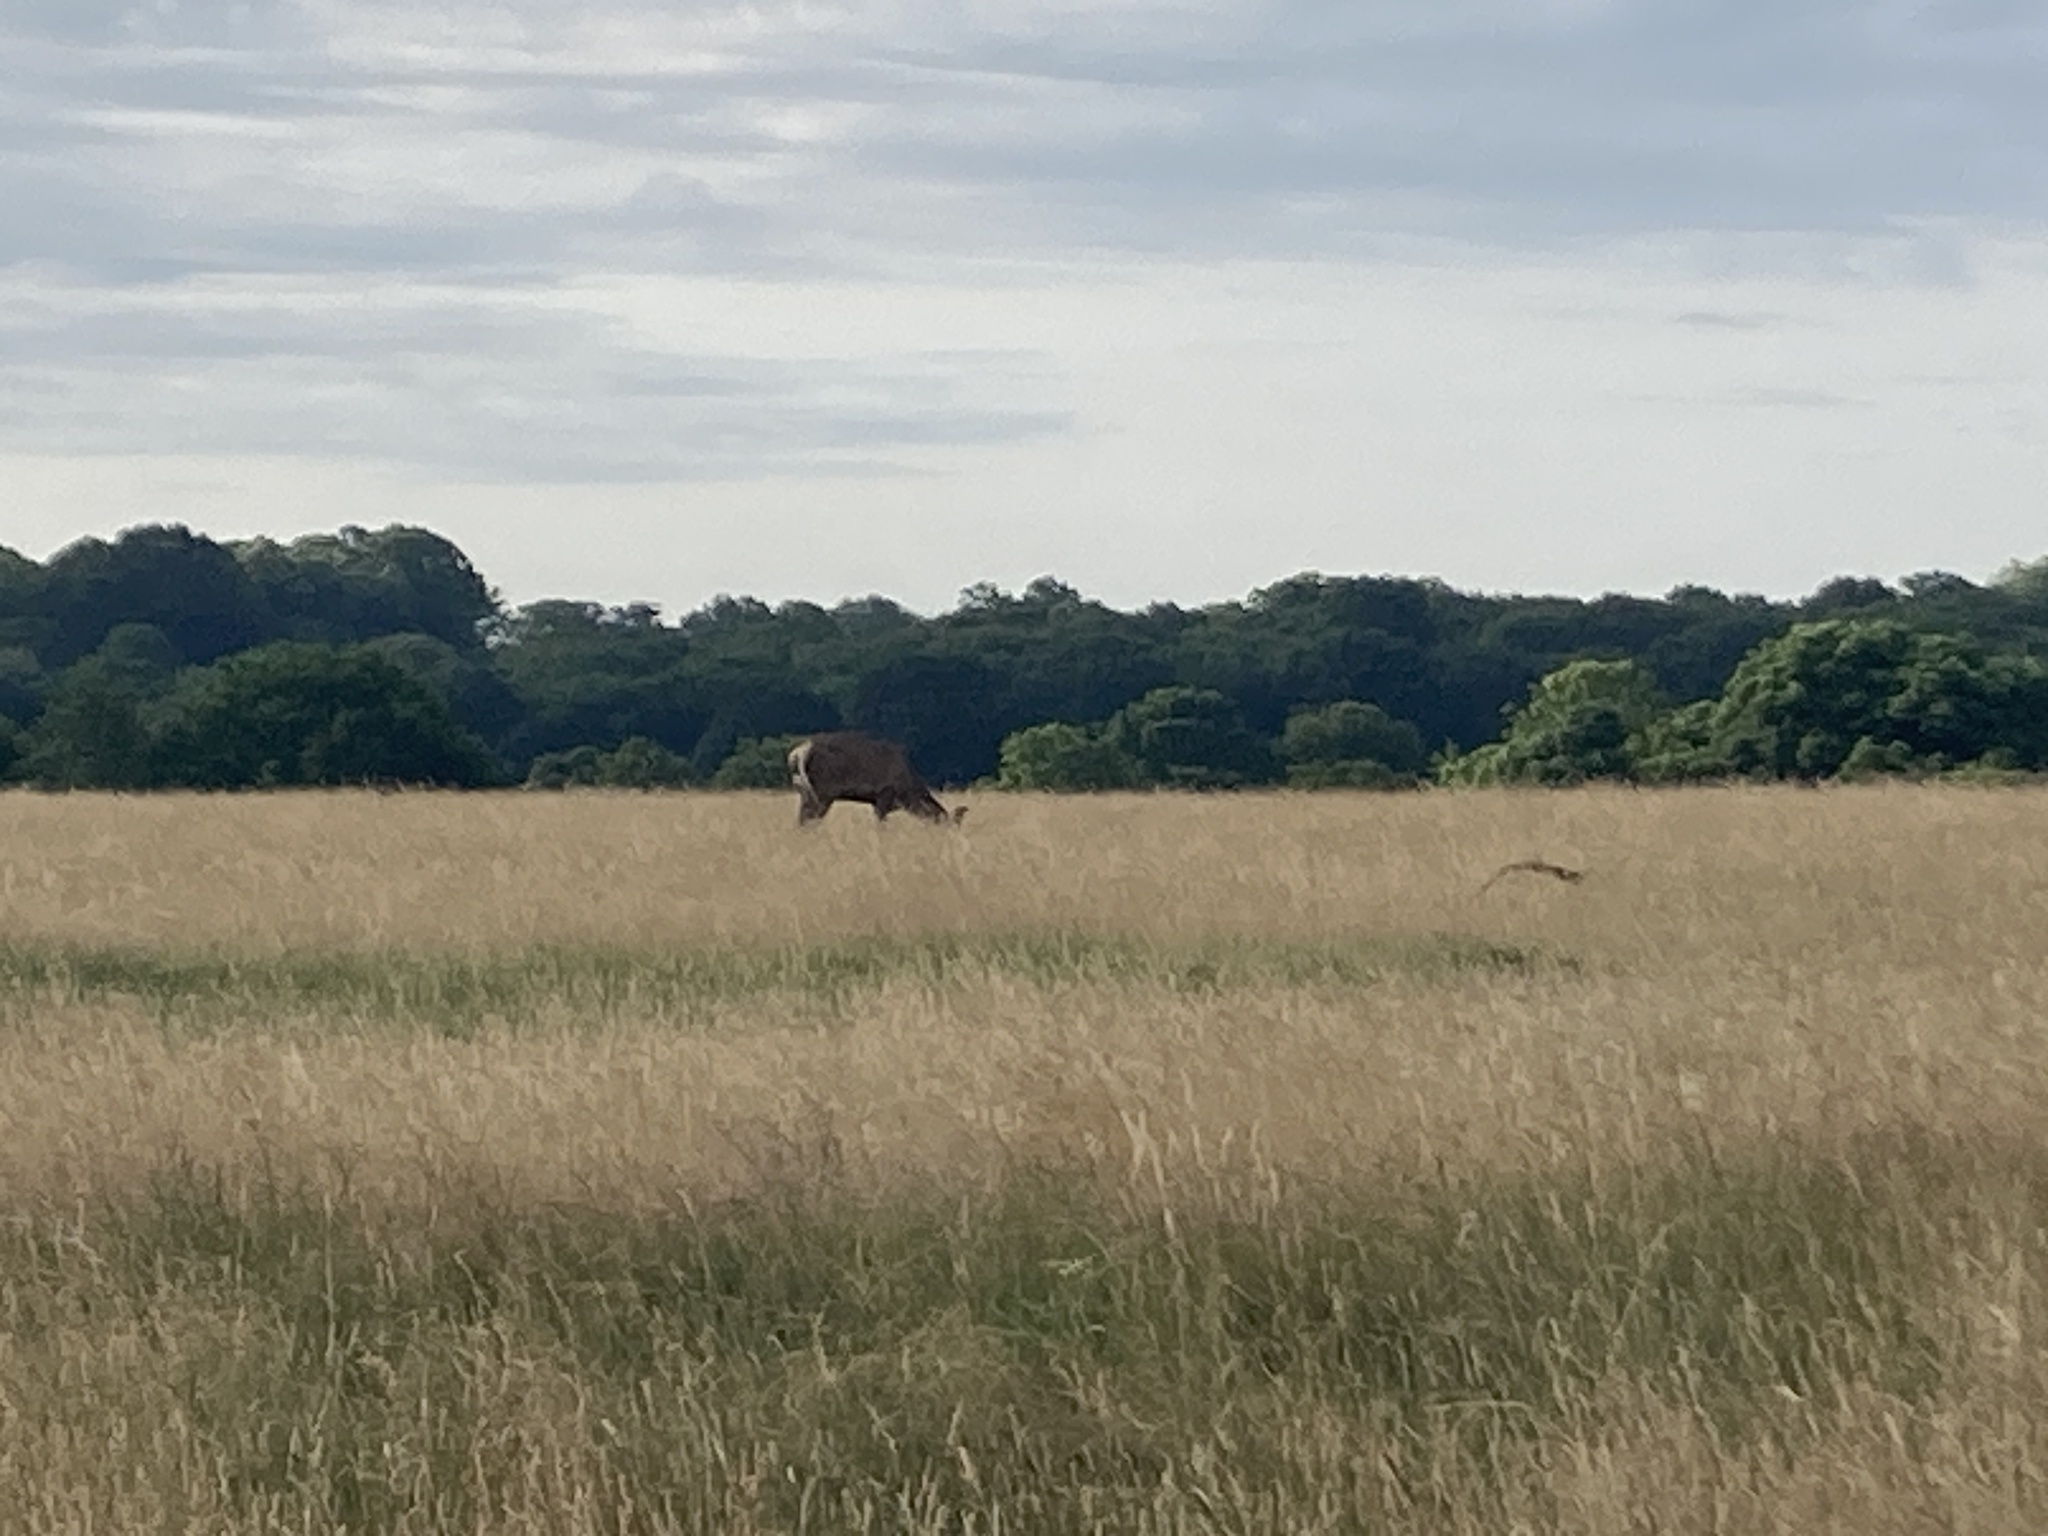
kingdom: Animalia
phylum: Chordata
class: Mammalia
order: Artiodactyla
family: Cervidae
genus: Cervus
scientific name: Cervus elaphus
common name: Red deer
